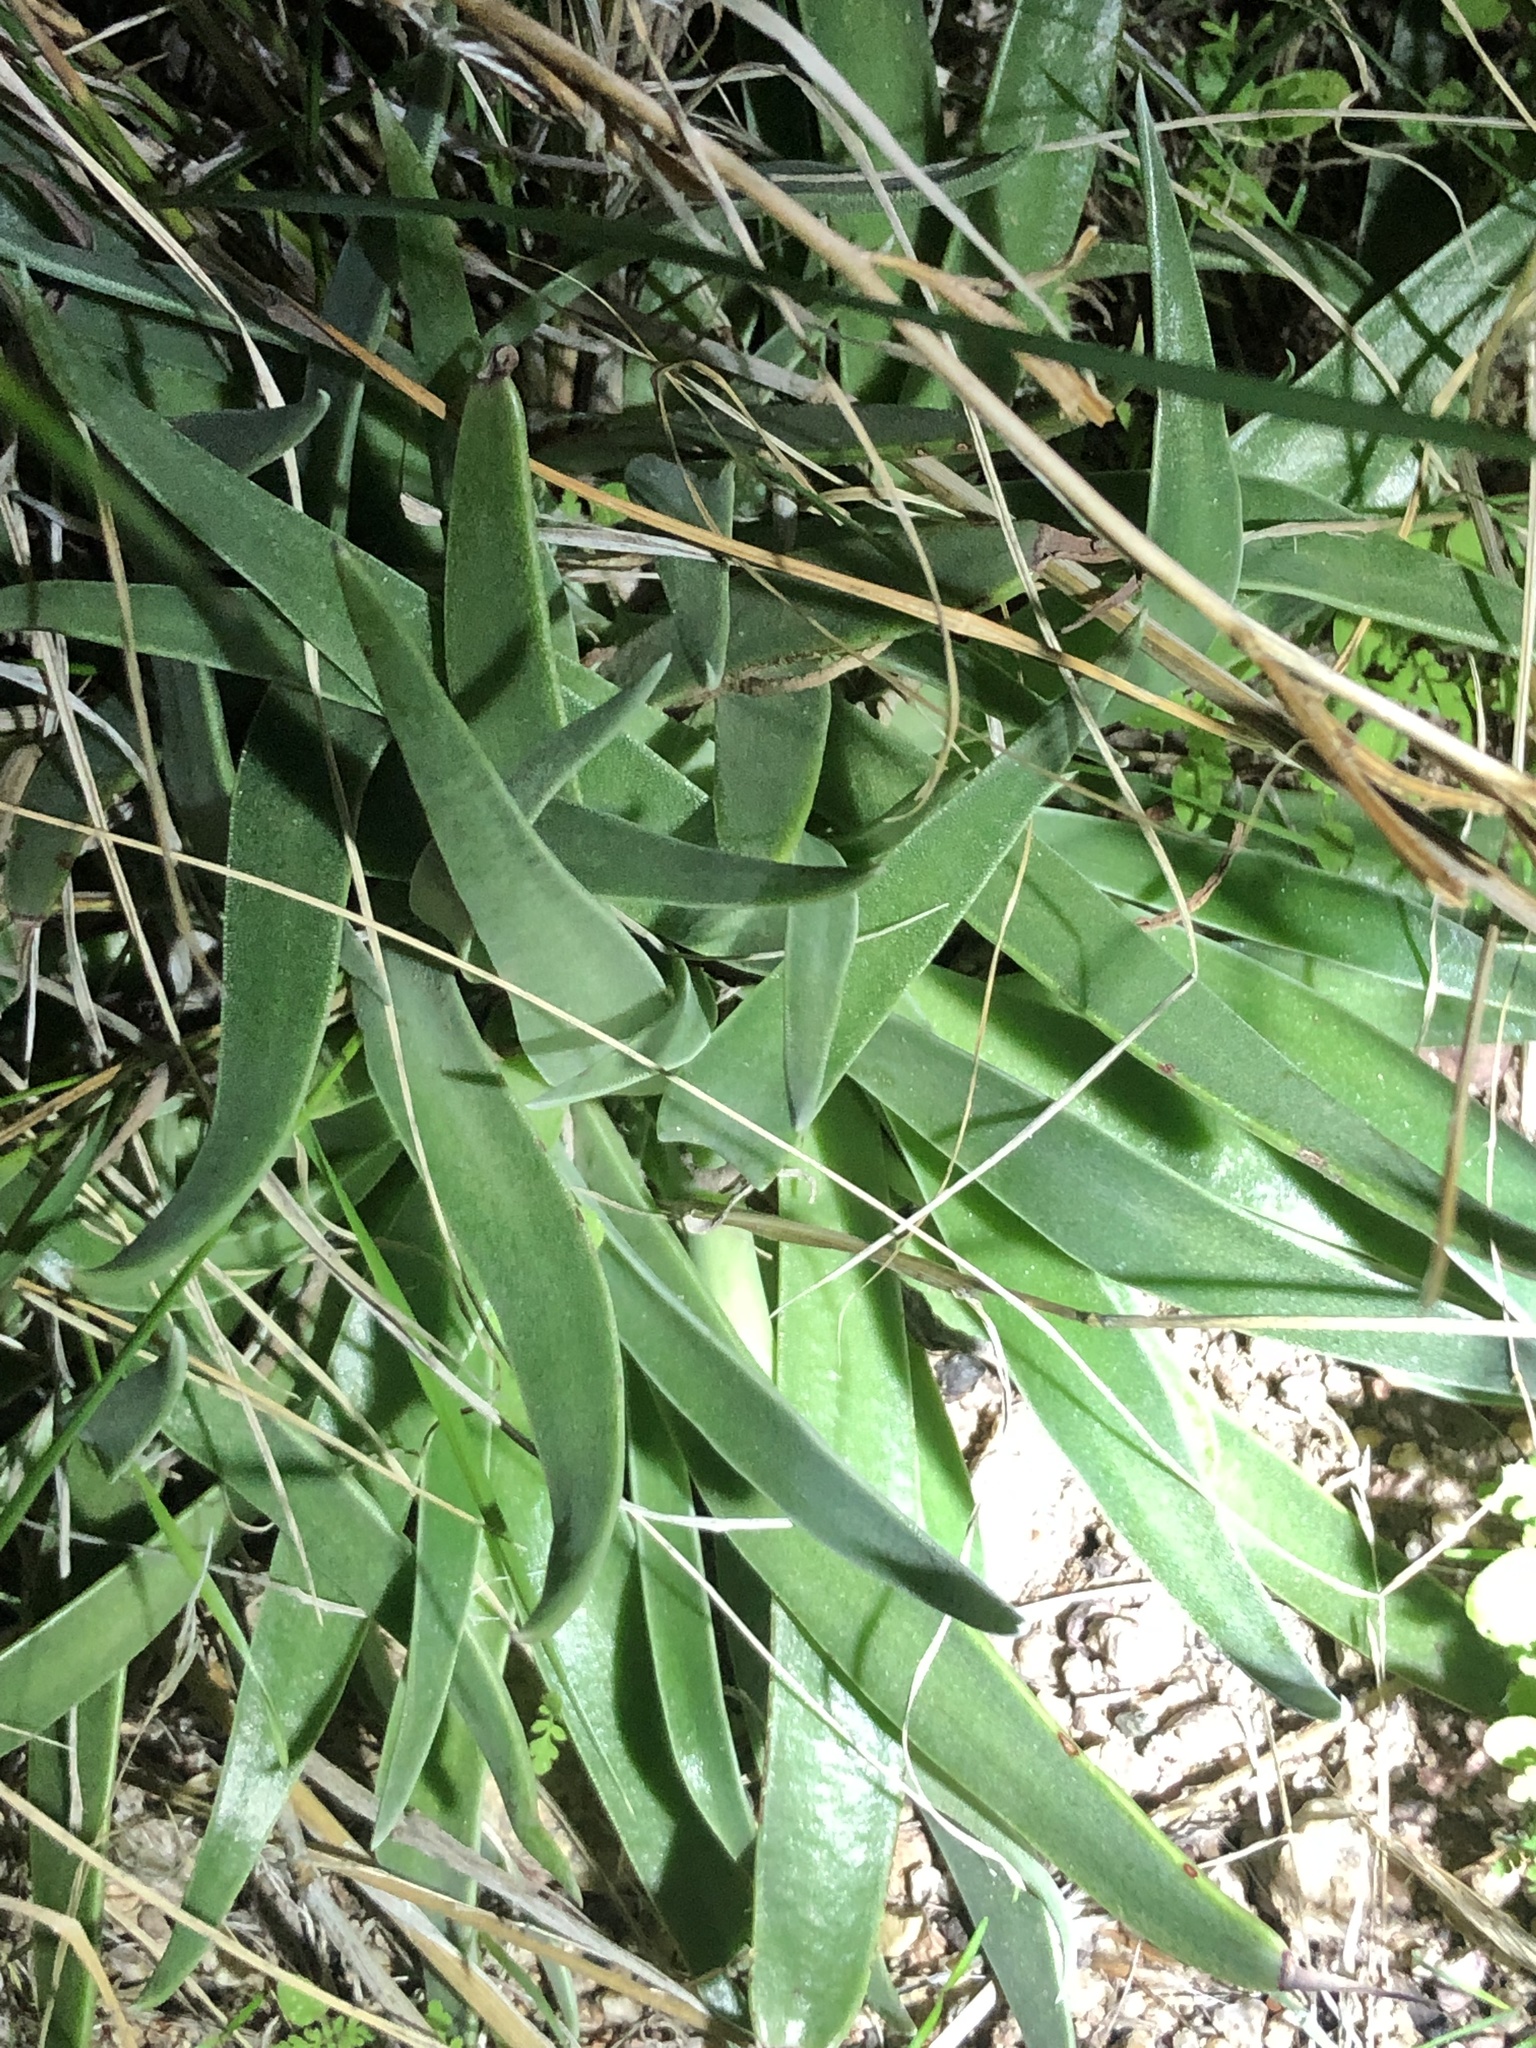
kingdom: Plantae
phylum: Tracheophyta
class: Magnoliopsida
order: Saxifragales
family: Crassulaceae
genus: Dudleya
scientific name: Dudleya lanceolata
